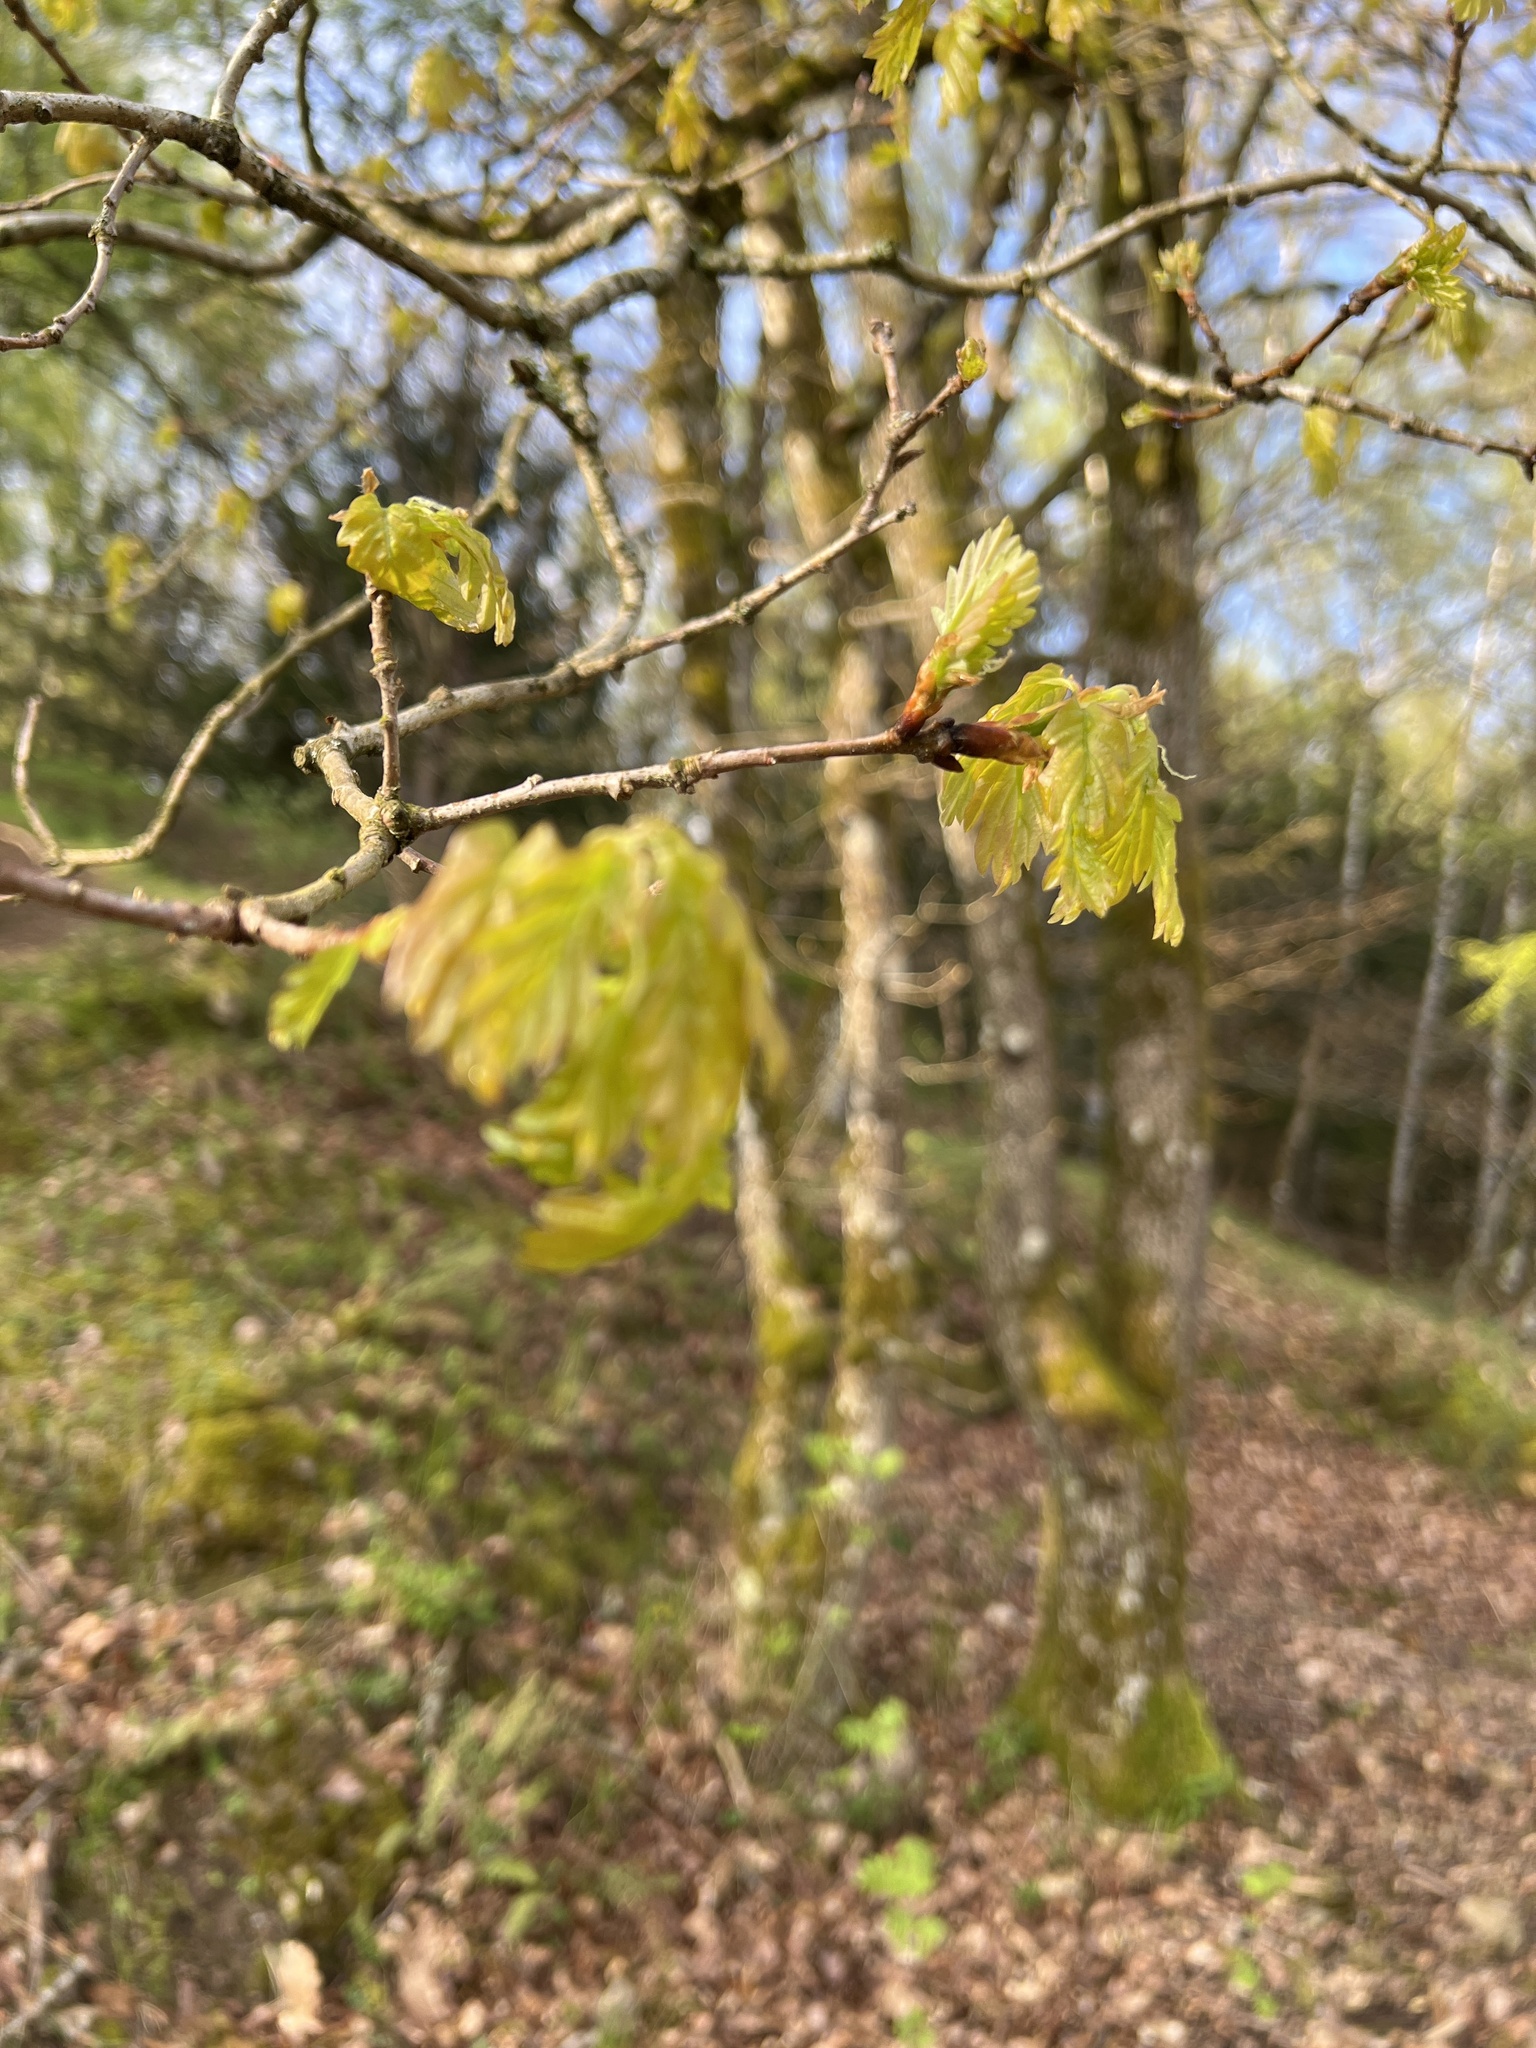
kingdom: Plantae
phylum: Tracheophyta
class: Magnoliopsida
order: Fagales
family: Fagaceae
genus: Quercus
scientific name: Quercus robur
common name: Pedunculate oak
